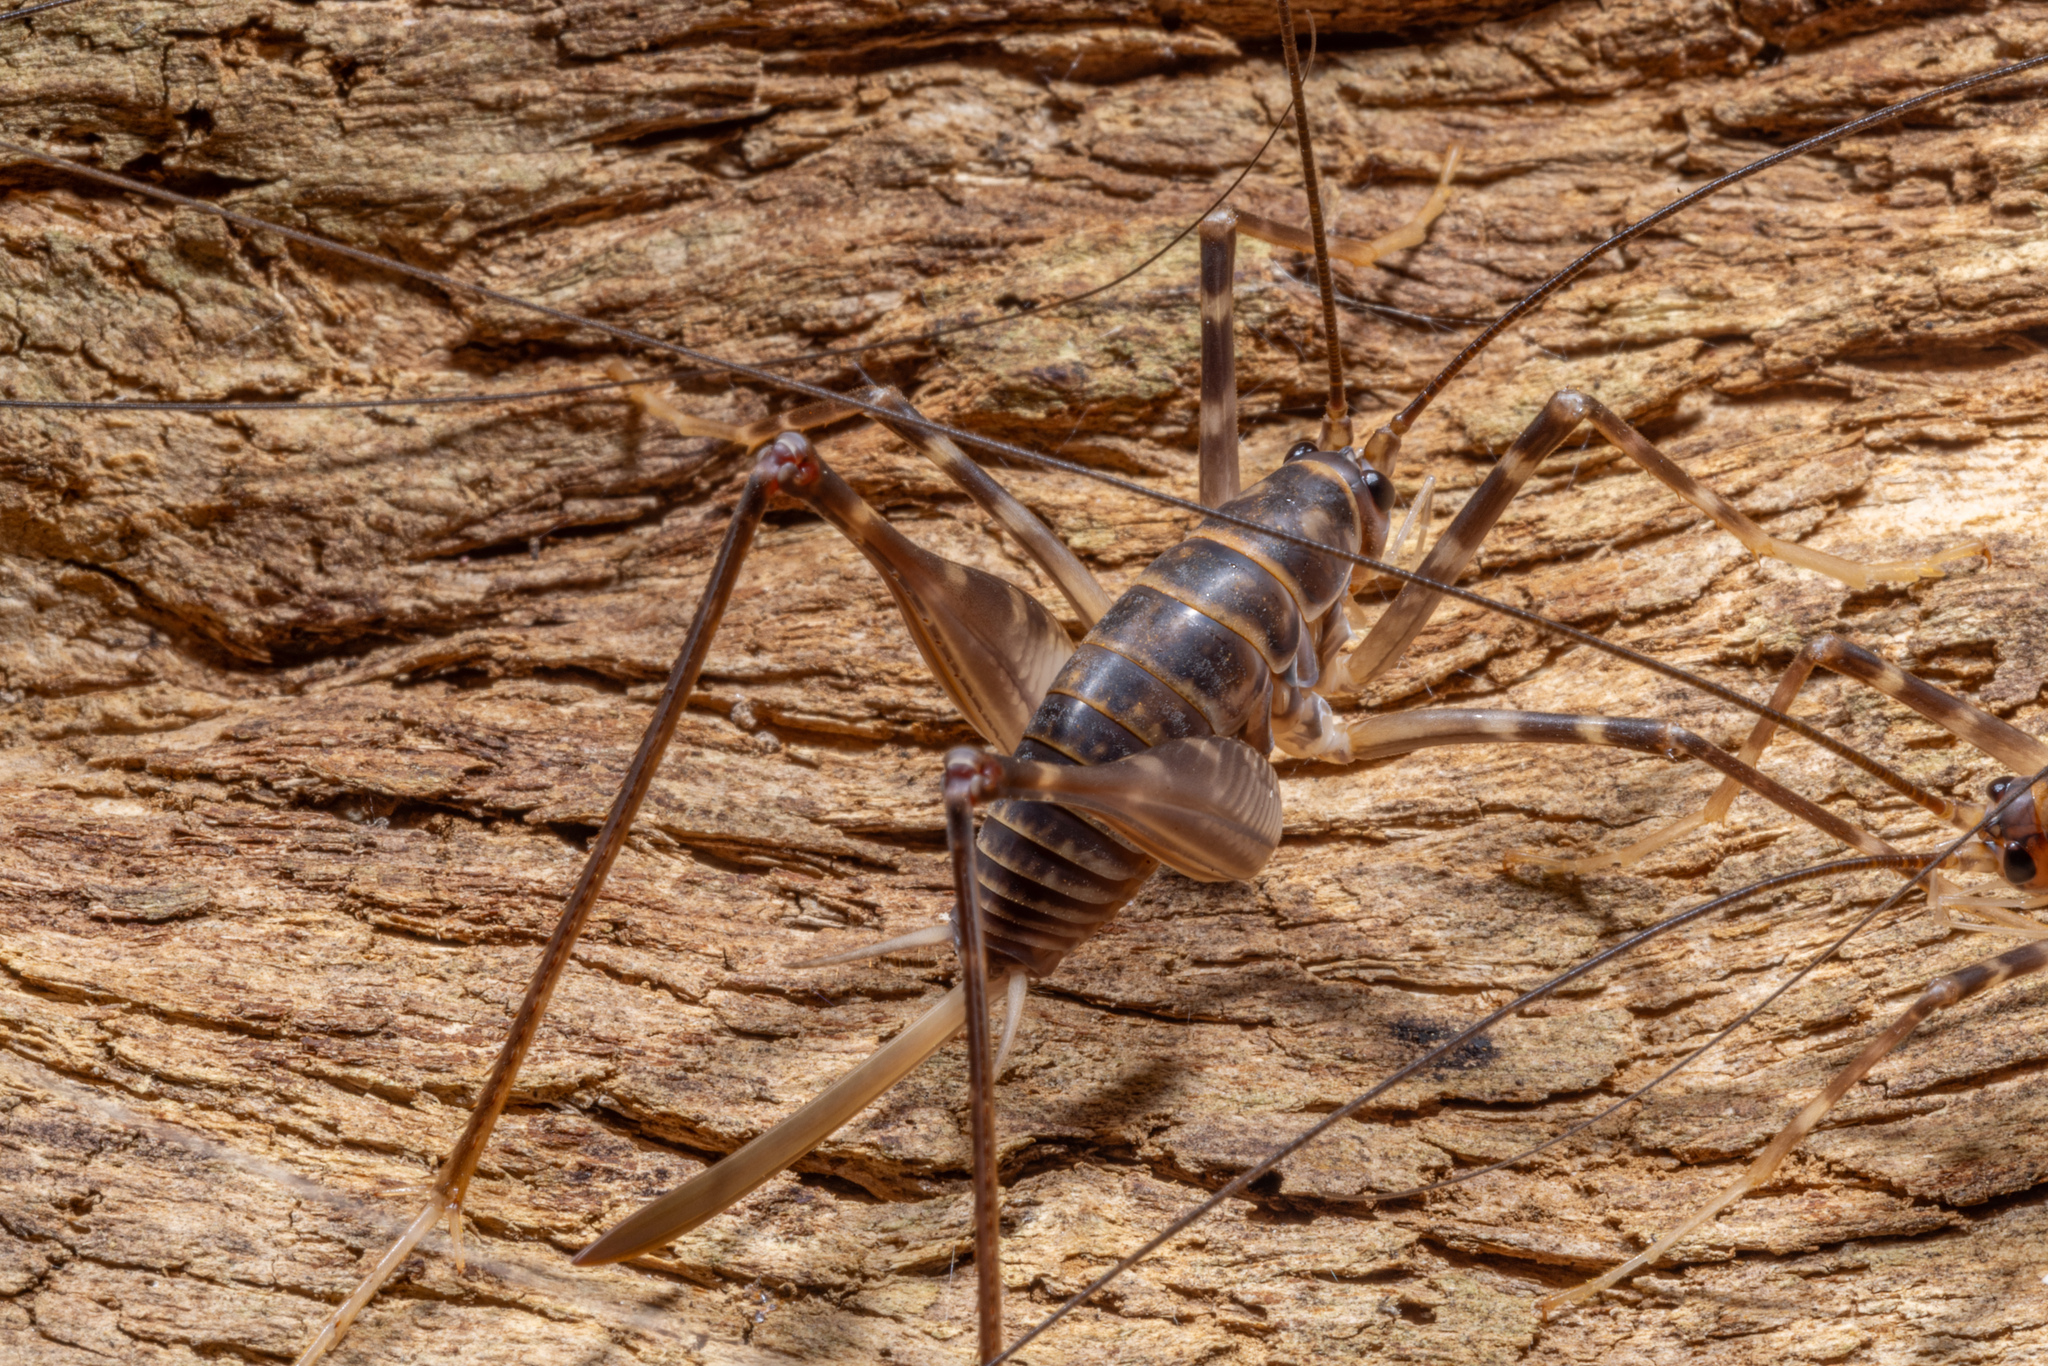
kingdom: Animalia
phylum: Arthropoda
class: Insecta
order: Orthoptera
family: Rhaphidophoridae
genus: Pachyrhamma
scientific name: Pachyrhamma acanthocera
